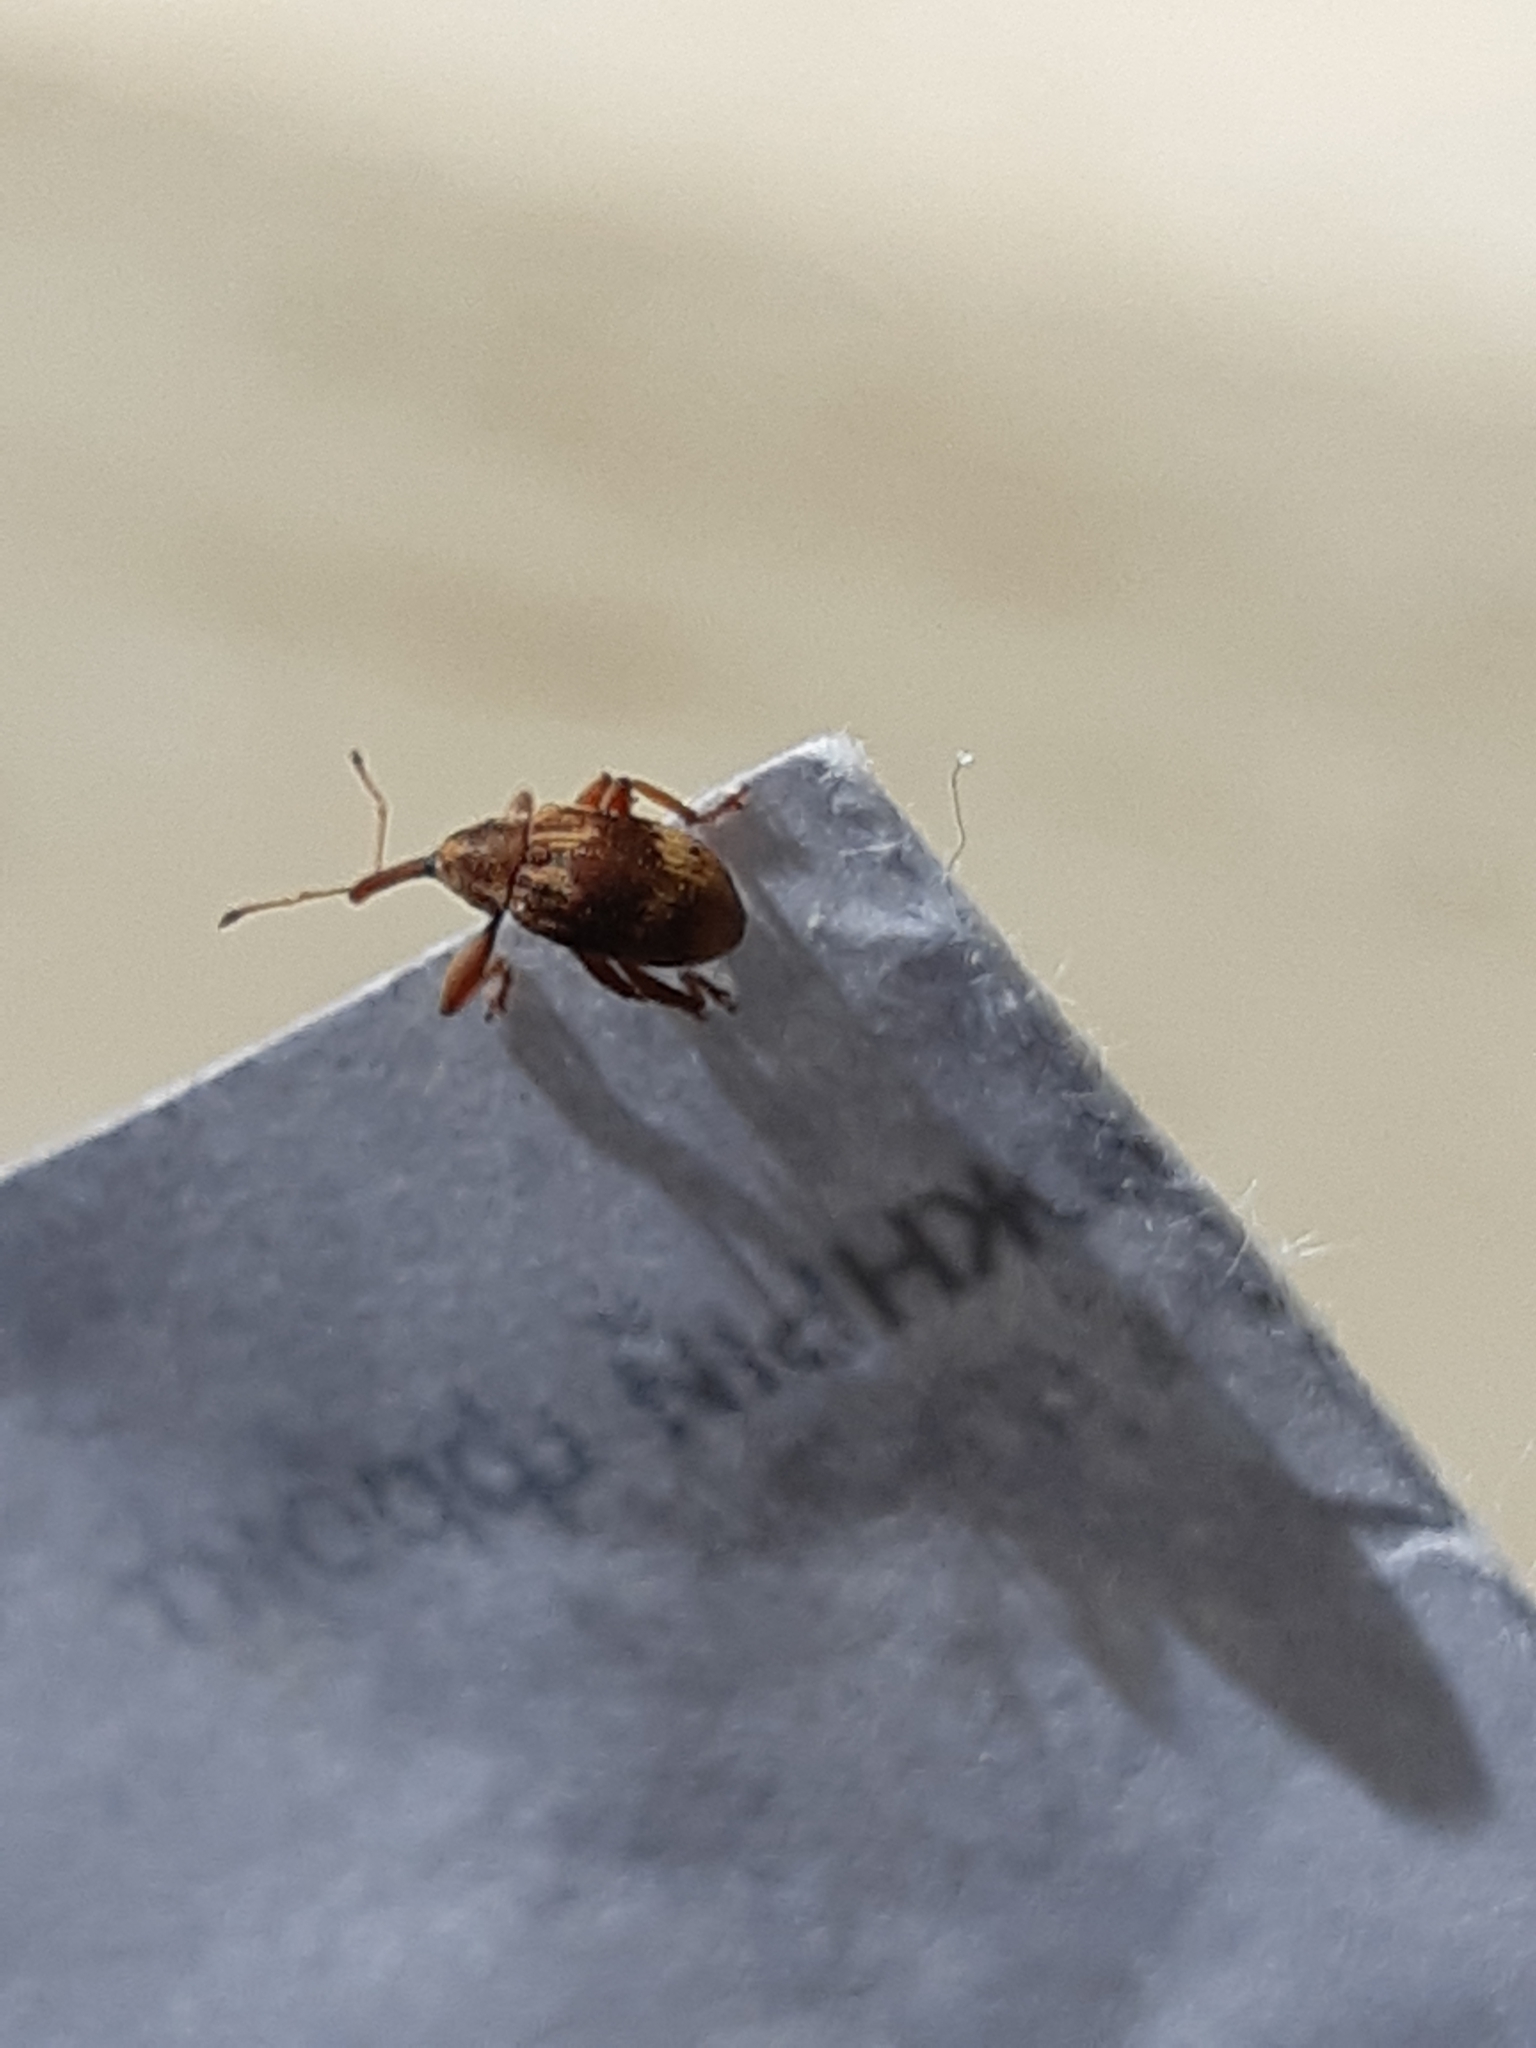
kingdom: Animalia
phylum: Arthropoda
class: Insecta
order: Coleoptera
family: Curculionidae
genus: Anthonomus
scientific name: Anthonomus rectirostris
